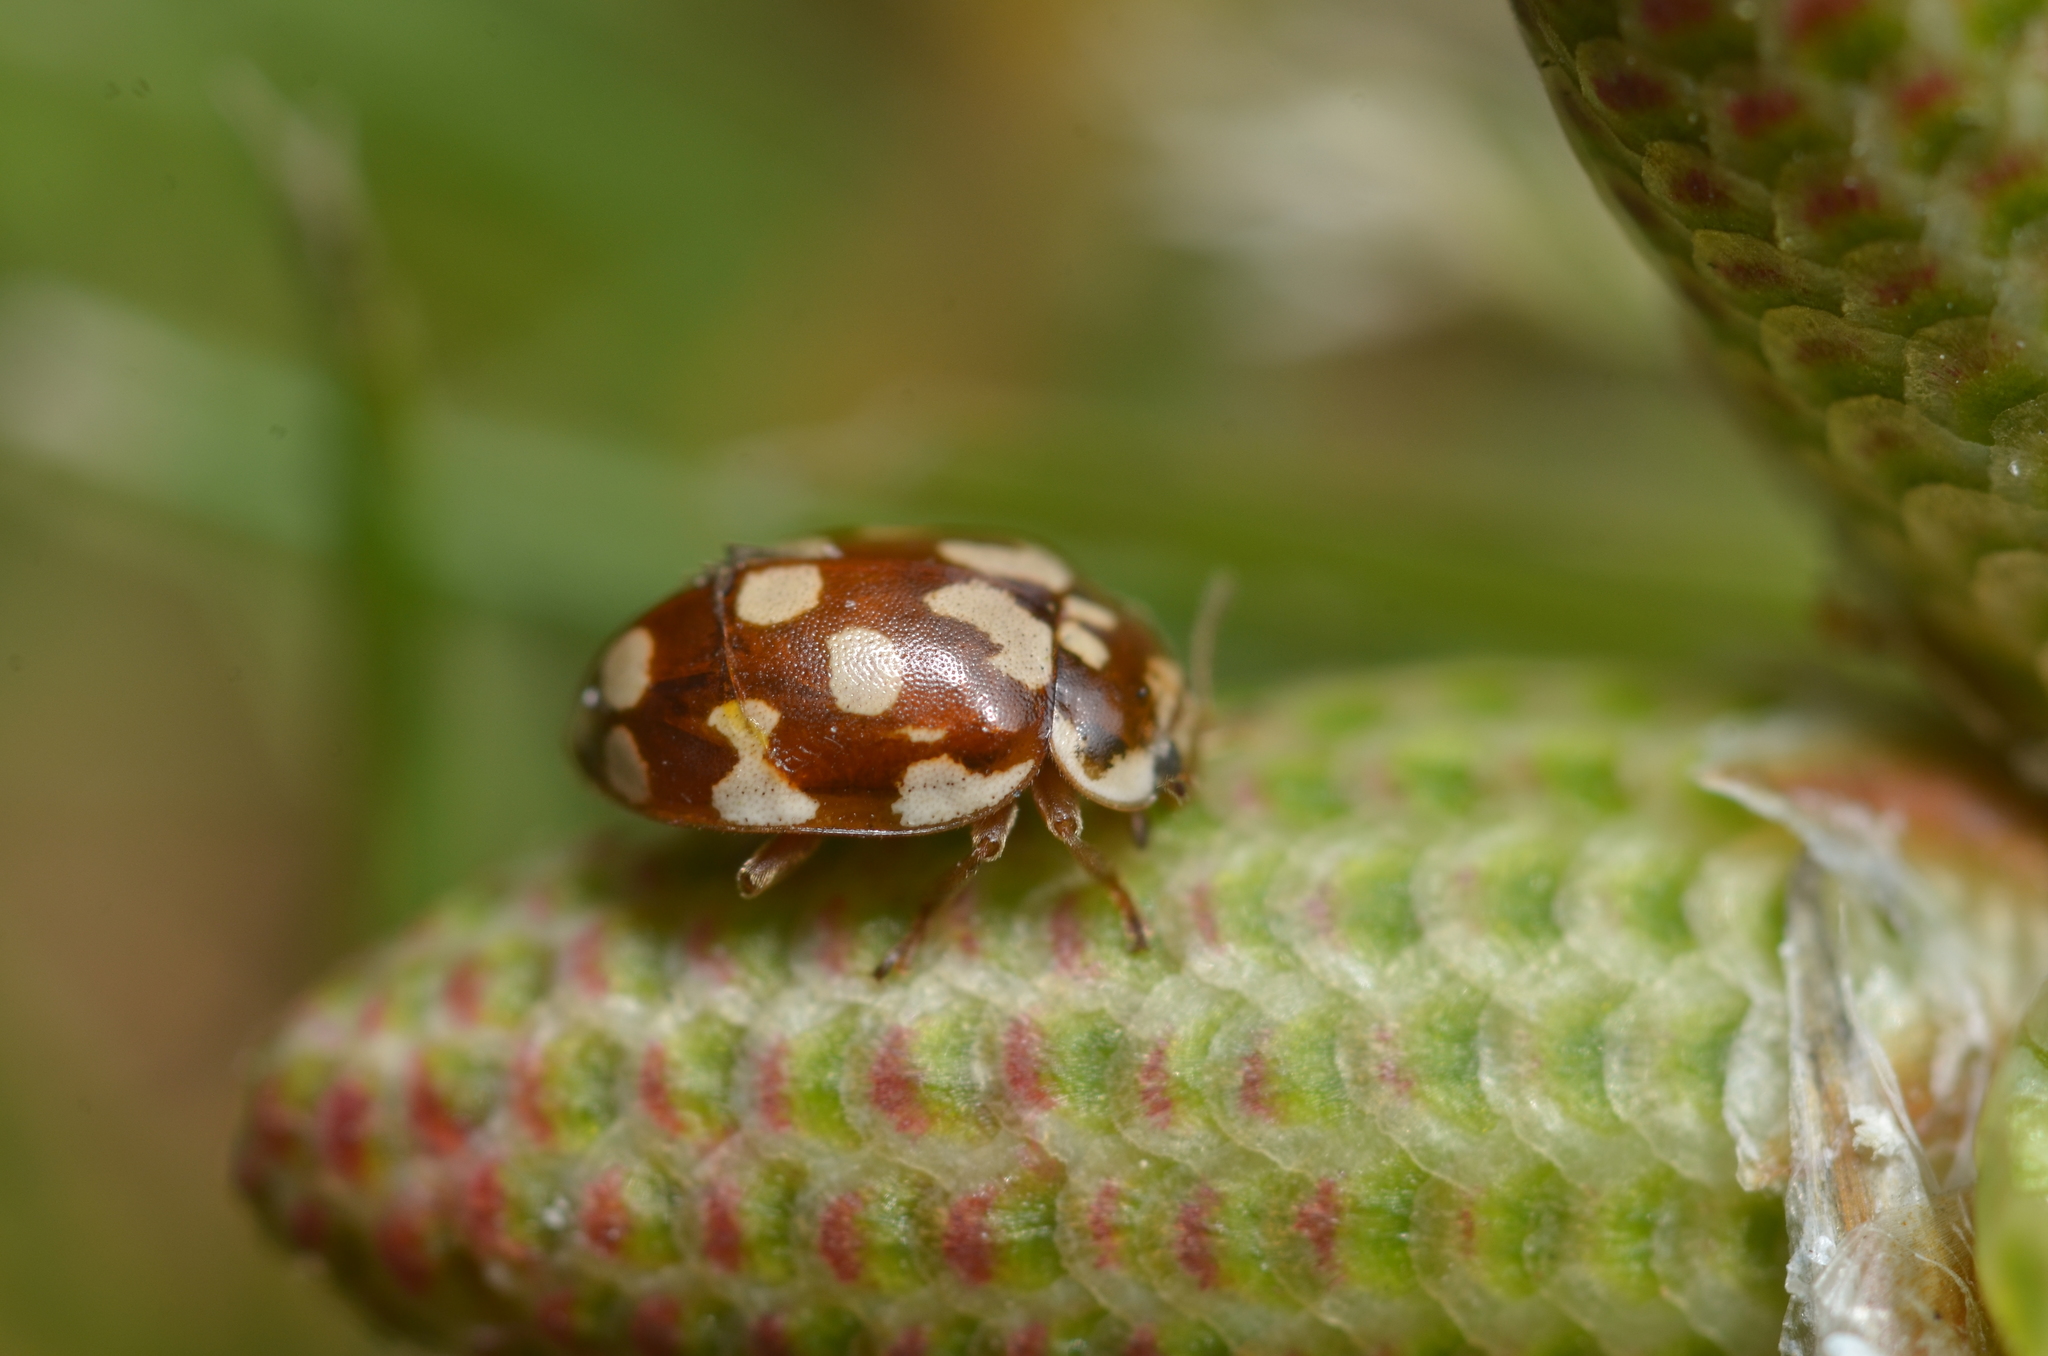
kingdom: Animalia
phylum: Arthropoda
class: Insecta
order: Coleoptera
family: Coccinellidae
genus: Myrrha
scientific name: Myrrha octodecimguttata
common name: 18-spot ladybird
